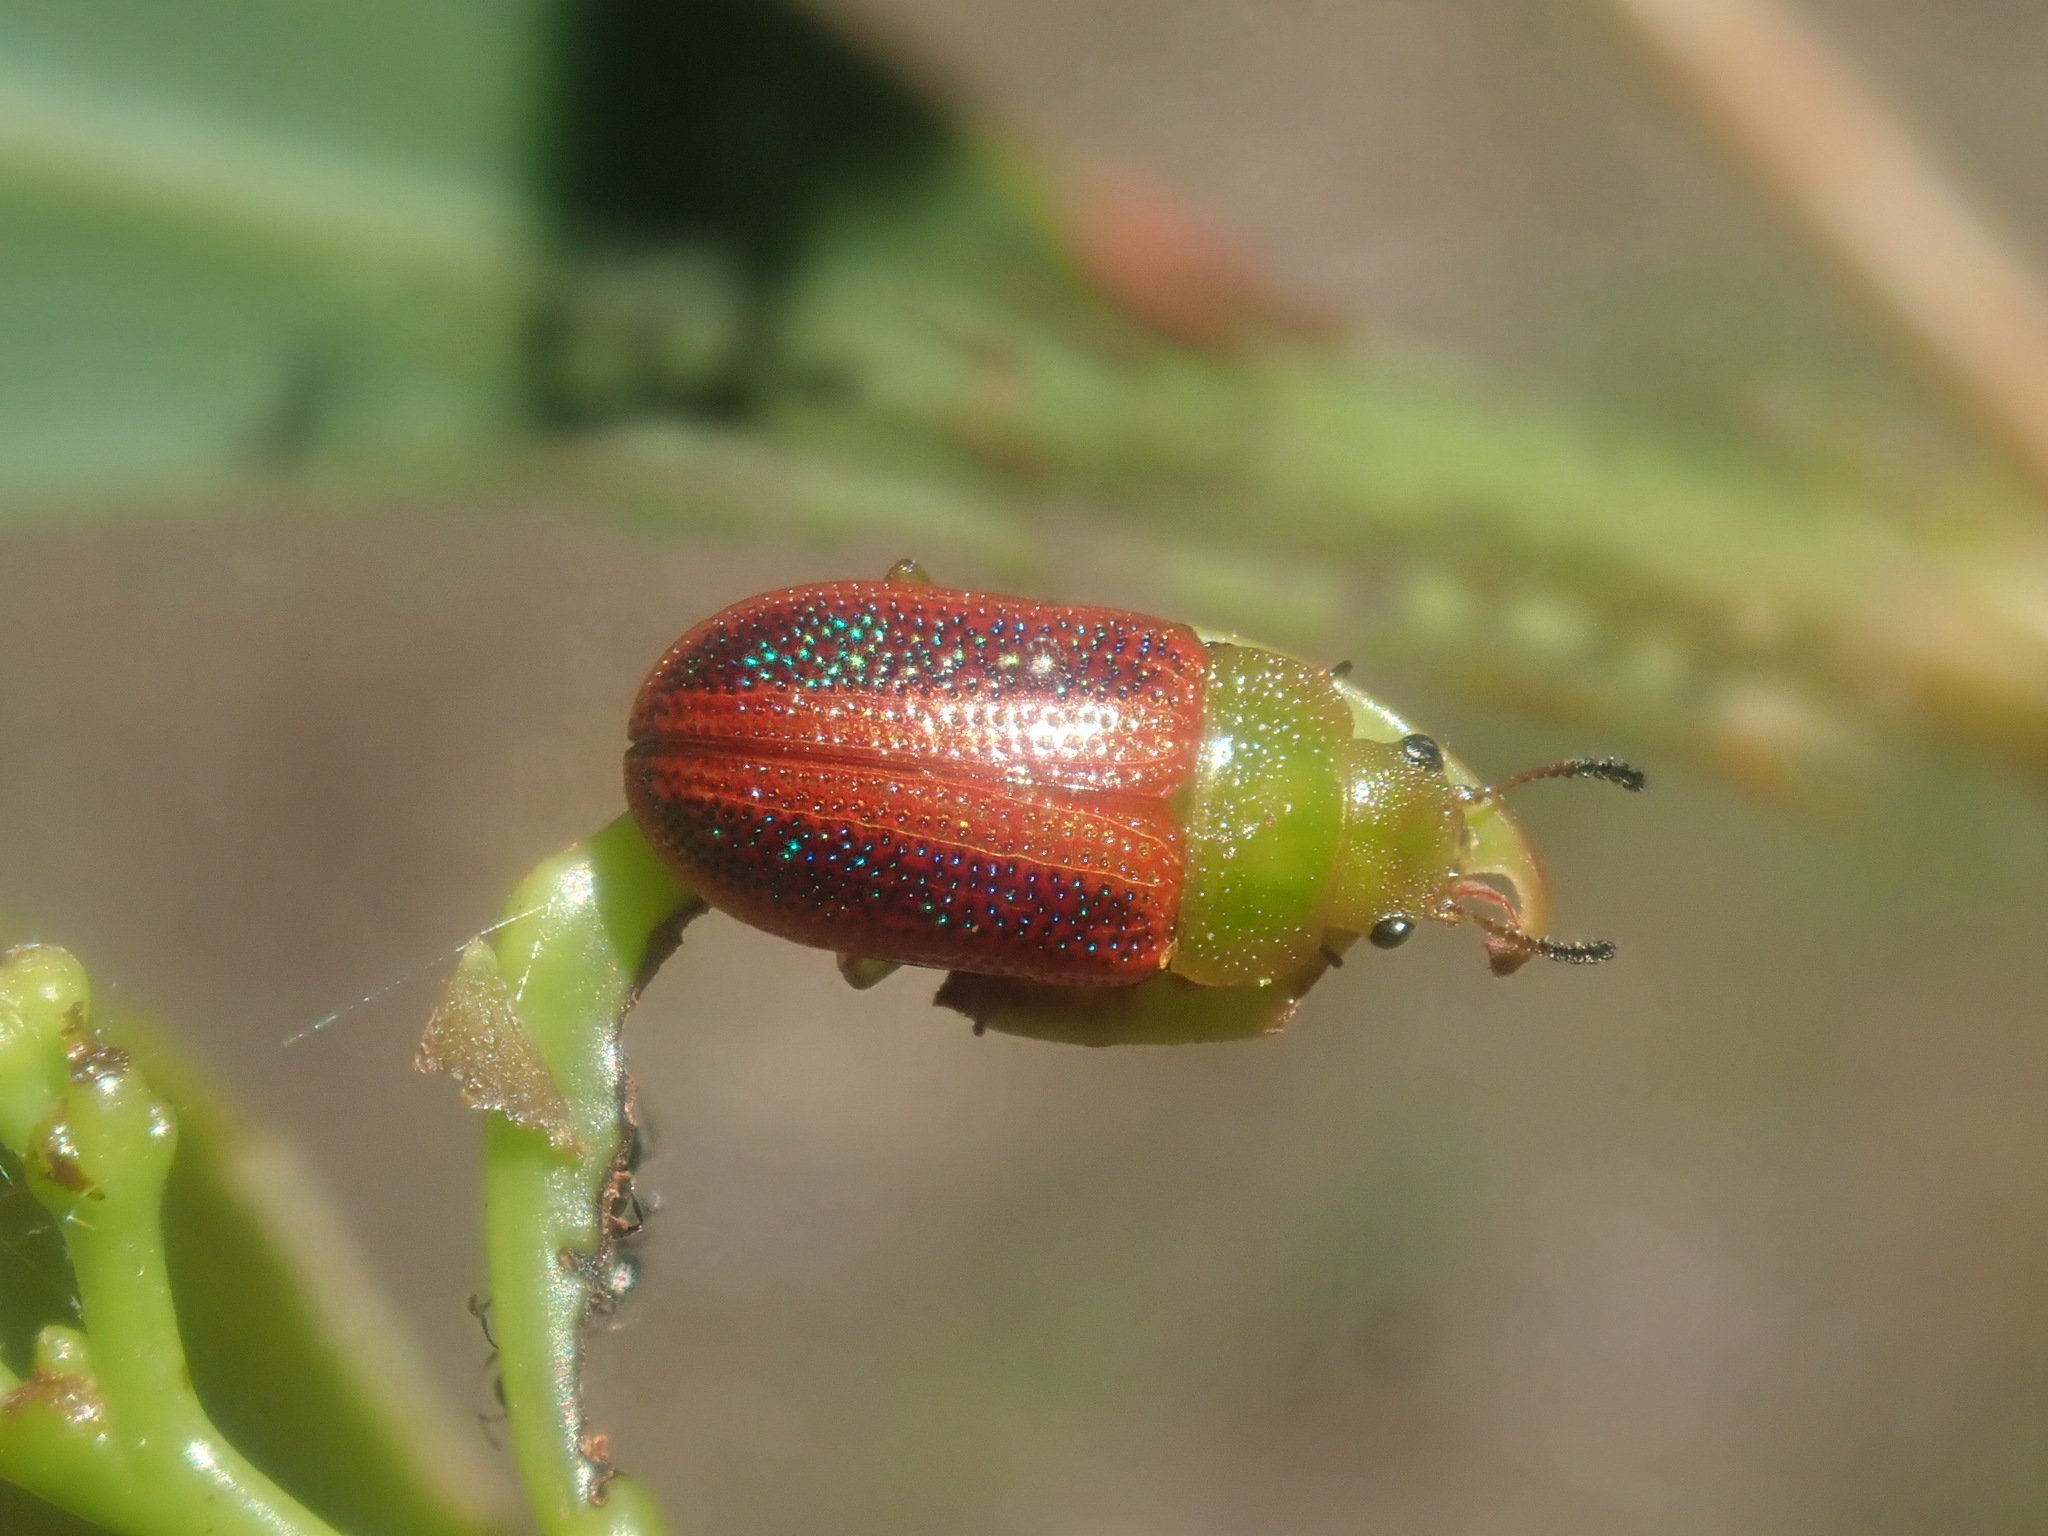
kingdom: Animalia
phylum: Arthropoda
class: Insecta
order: Coleoptera
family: Chrysomelidae
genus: Calomela
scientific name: Calomela
